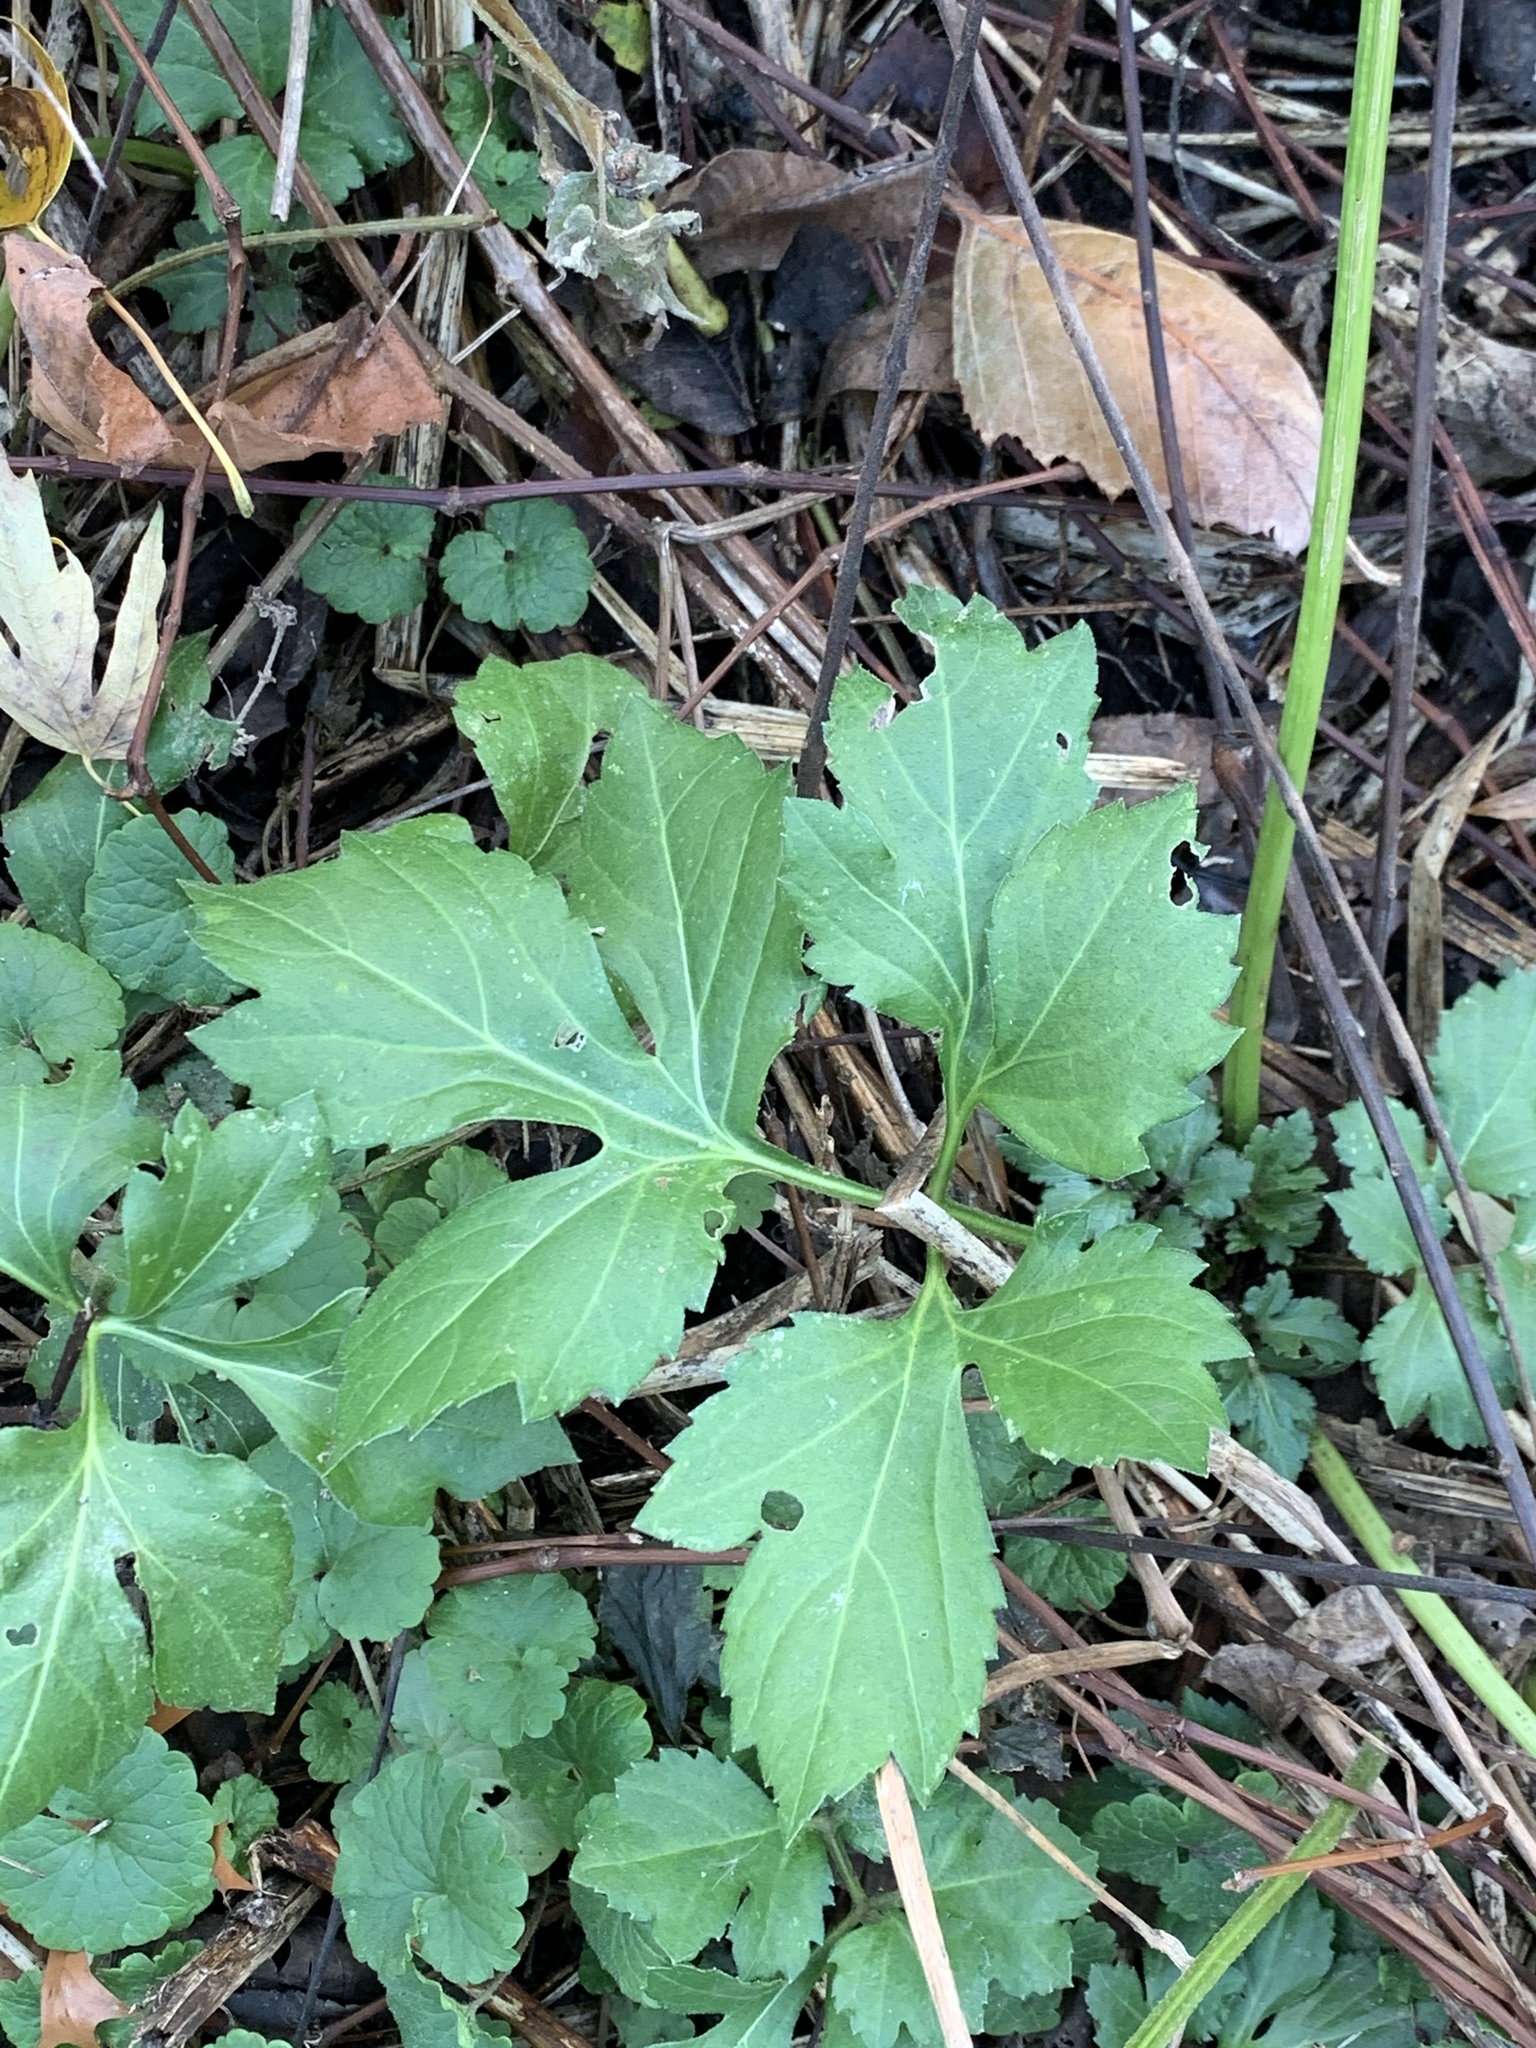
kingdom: Plantae
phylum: Tracheophyta
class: Magnoliopsida
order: Asterales
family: Asteraceae
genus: Rudbeckia
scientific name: Rudbeckia laciniata
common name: Coneflower
